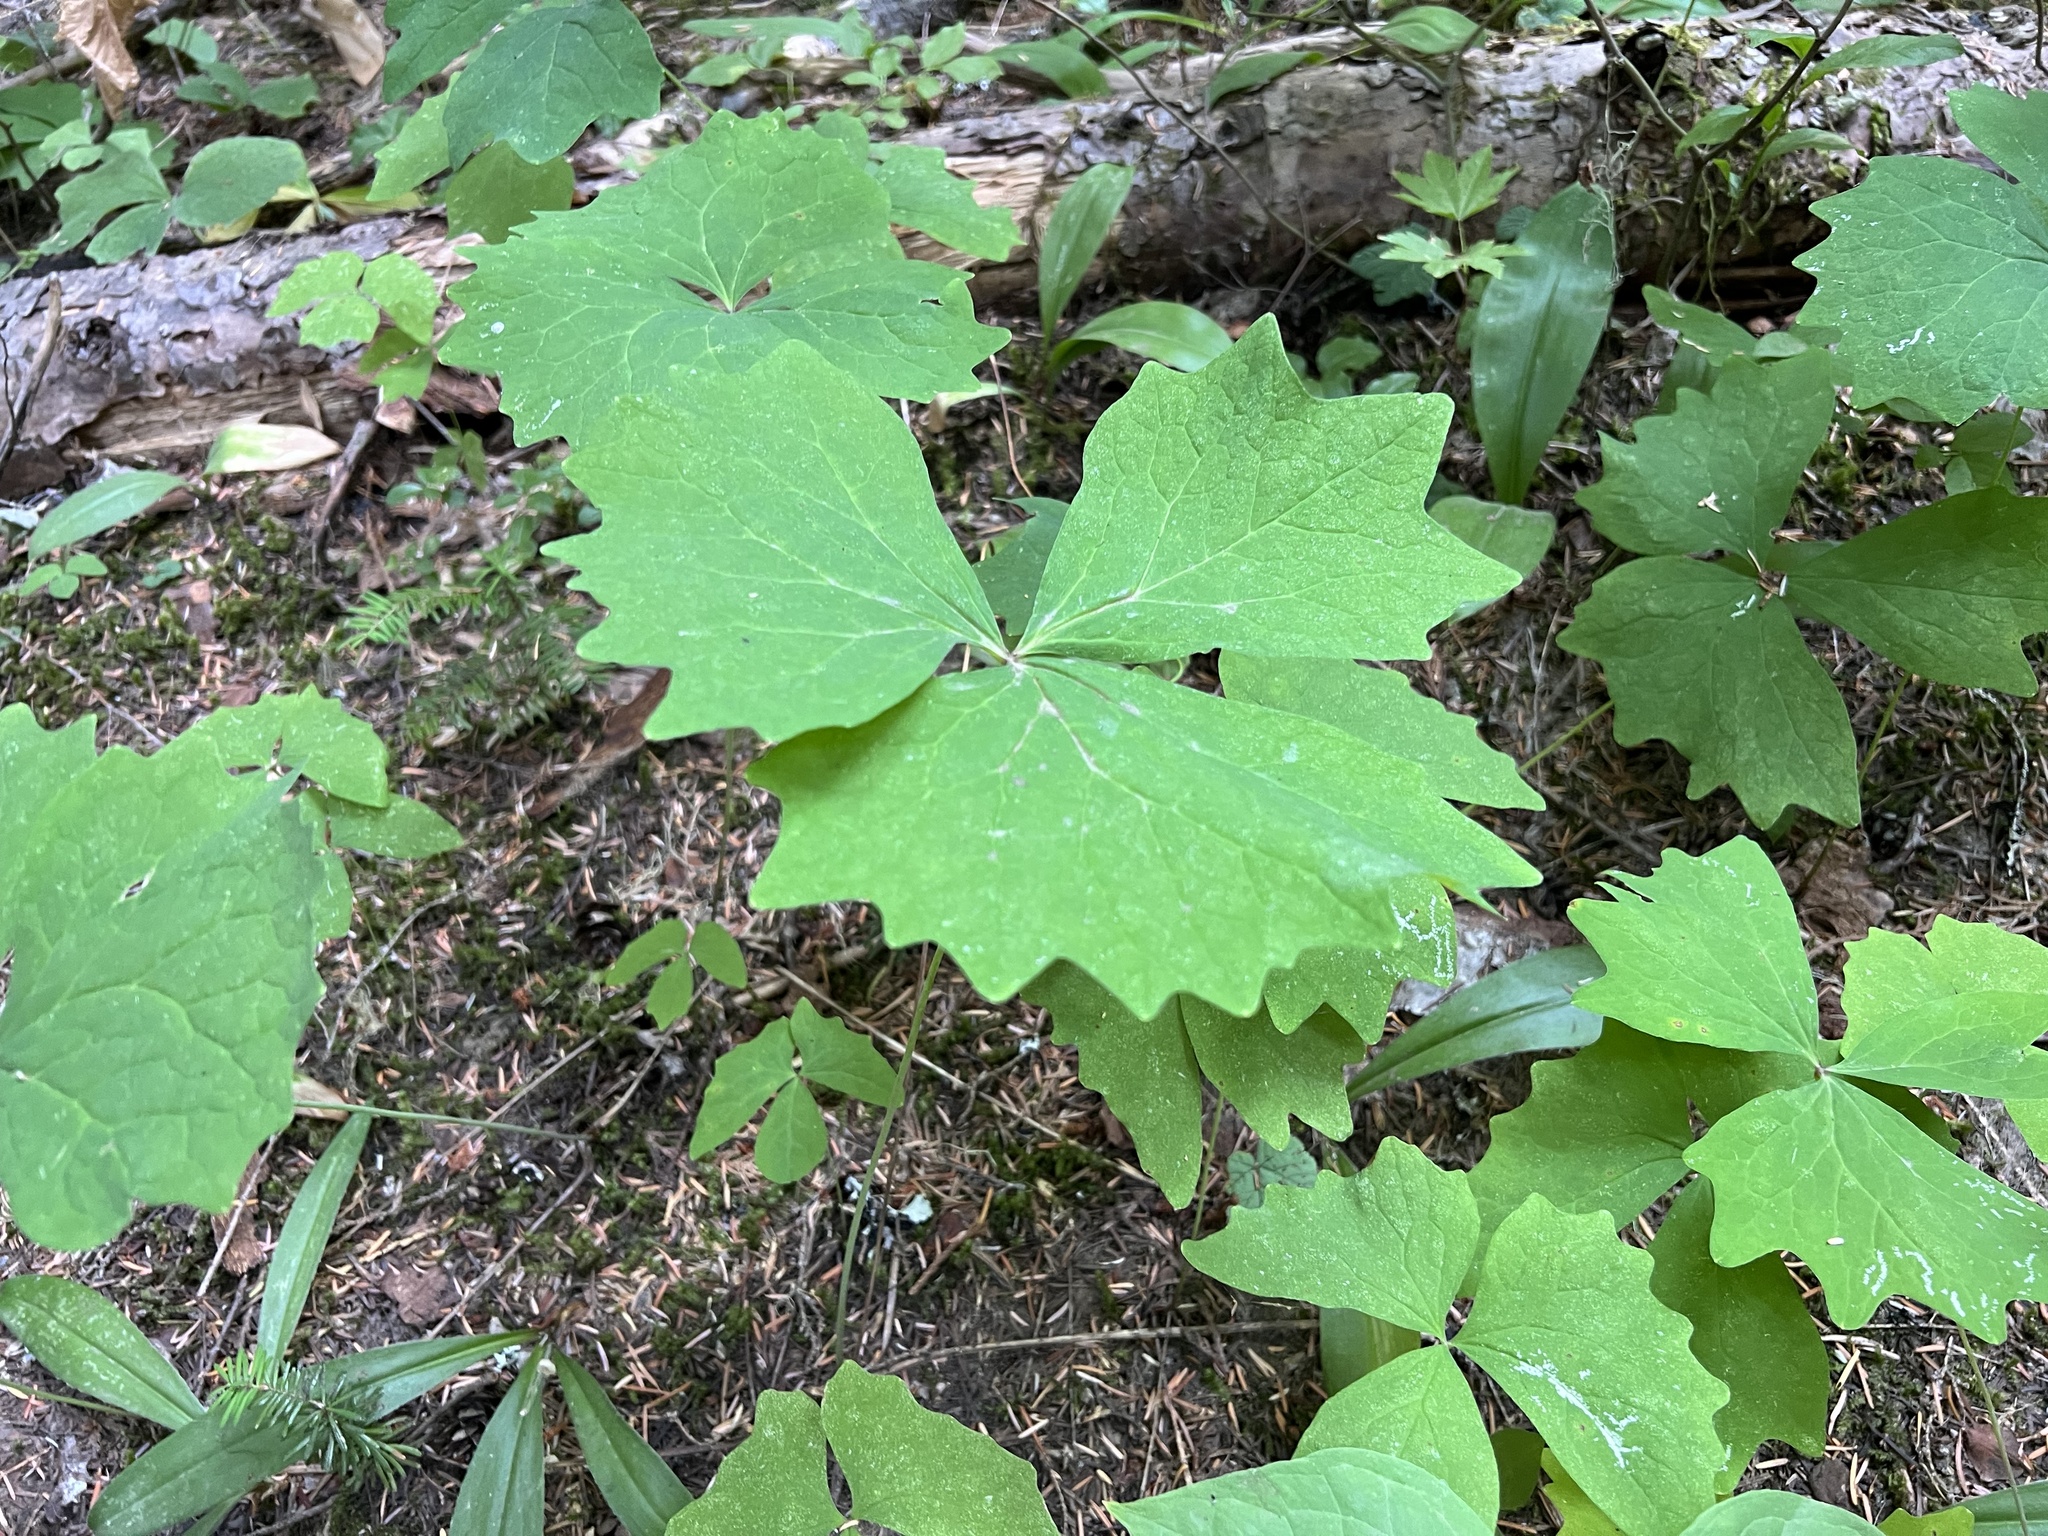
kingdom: Plantae
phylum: Tracheophyta
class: Magnoliopsida
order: Ranunculales
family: Berberidaceae
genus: Achlys
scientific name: Achlys triphylla
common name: Vanilla-leaf
